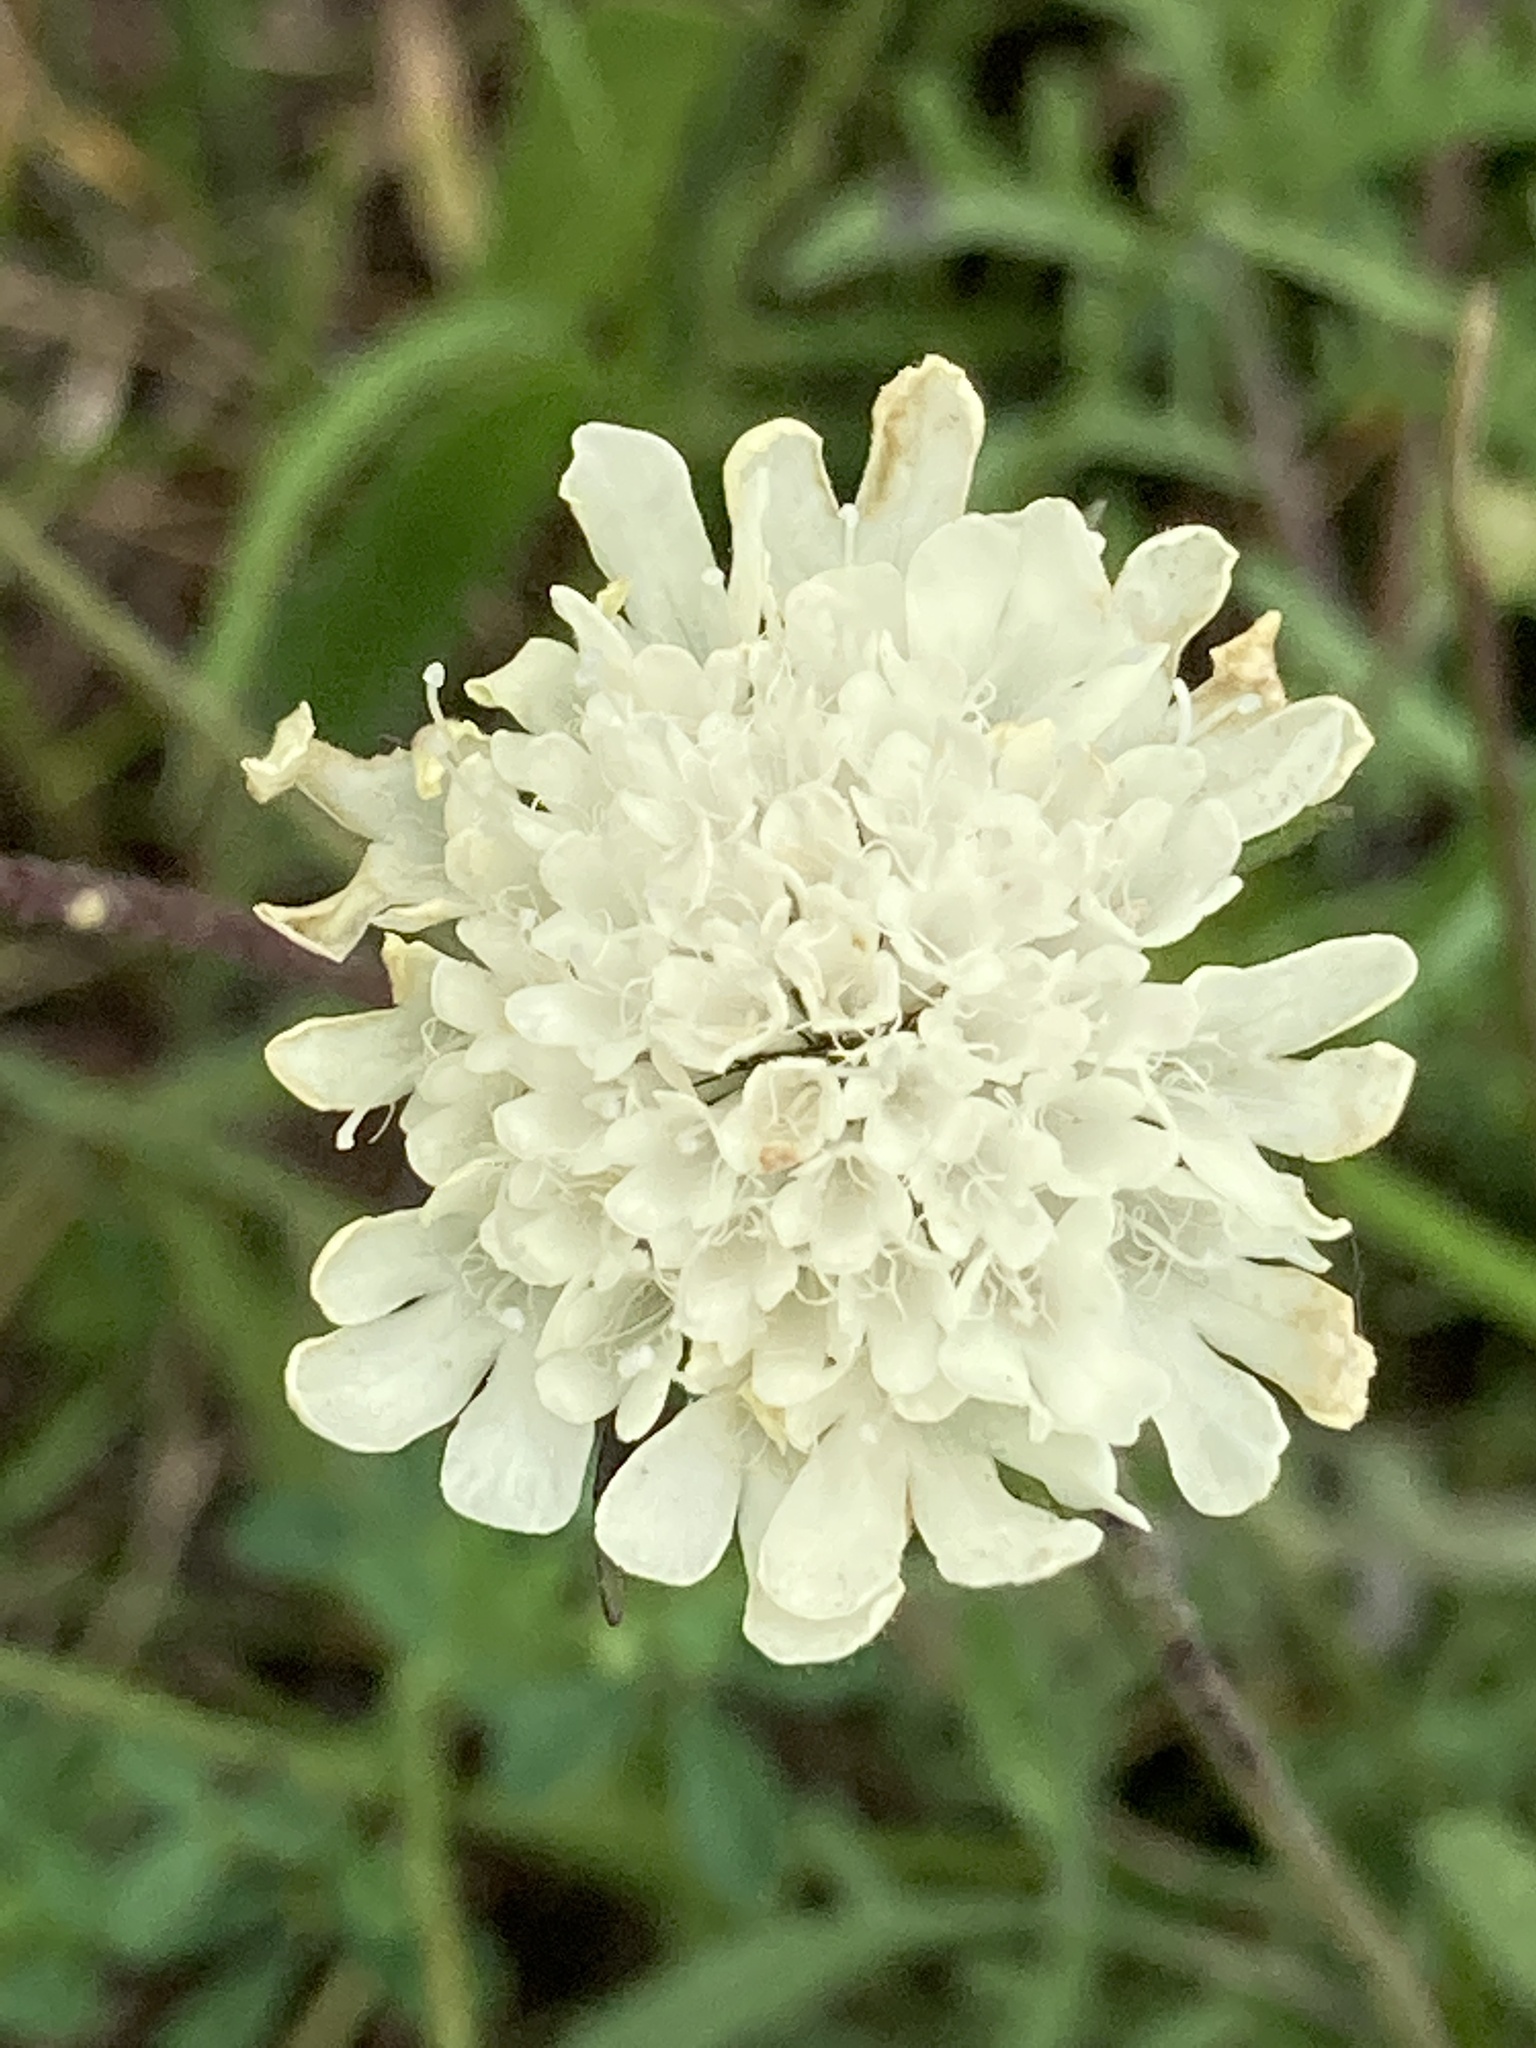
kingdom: Plantae
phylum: Tracheophyta
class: Magnoliopsida
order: Dipsacales
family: Caprifoliaceae
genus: Scabiosa
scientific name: Scabiosa ochroleuca
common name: Cream pincushions
